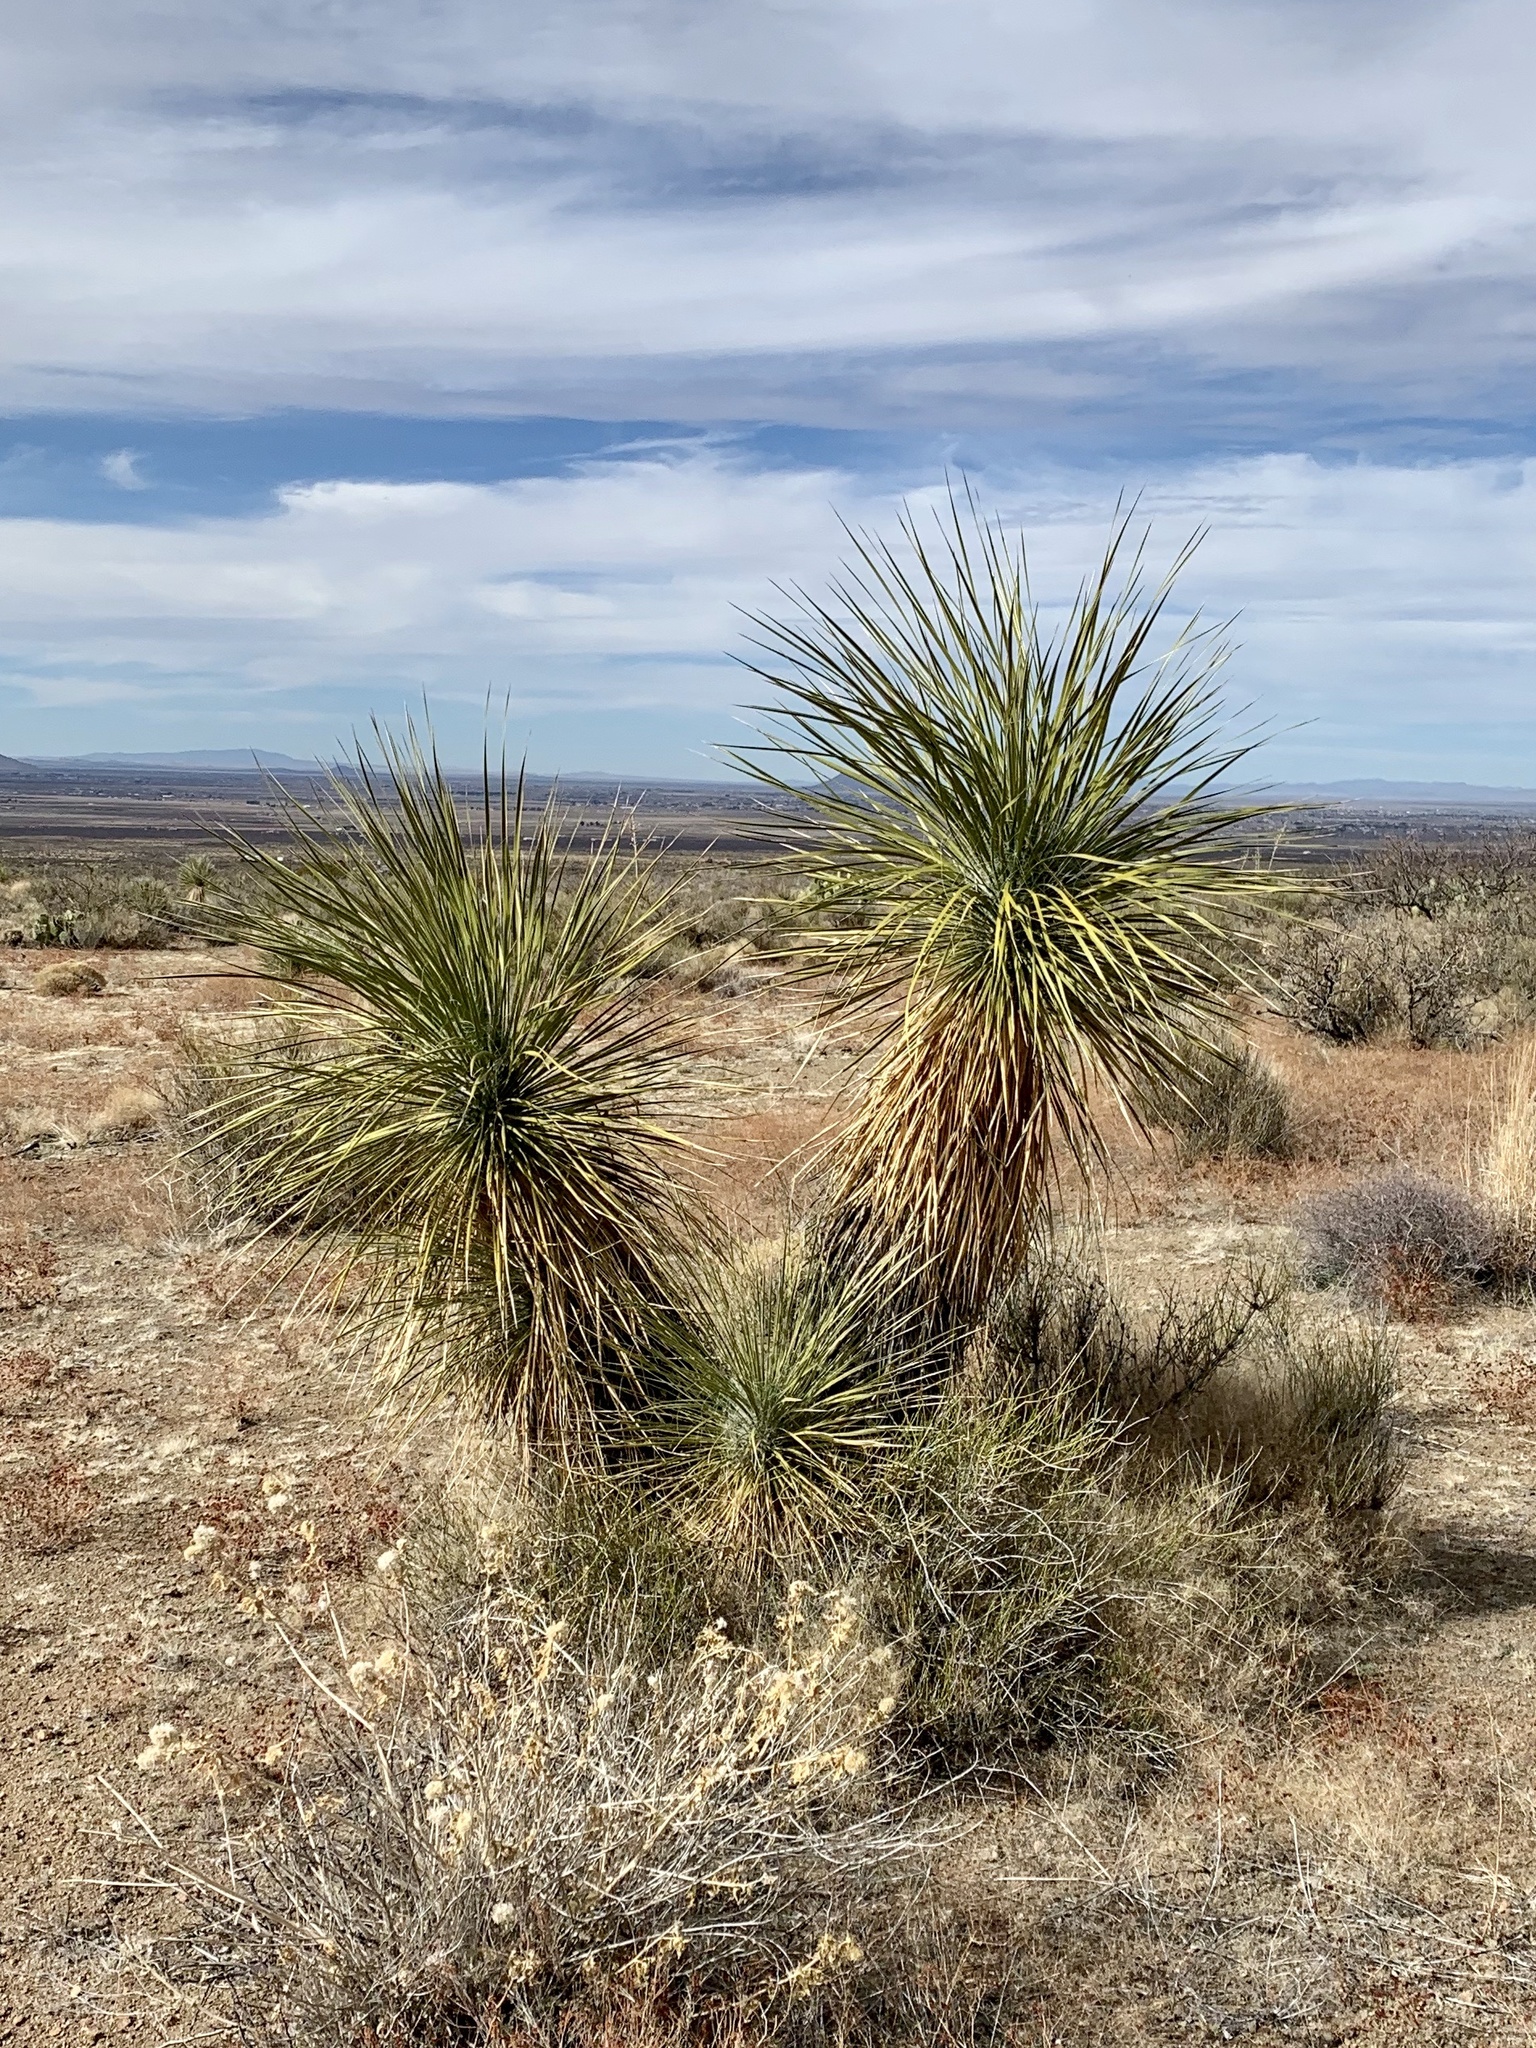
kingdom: Plantae
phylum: Tracheophyta
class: Liliopsida
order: Asparagales
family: Asparagaceae
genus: Yucca
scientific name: Yucca elata
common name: Palmella
